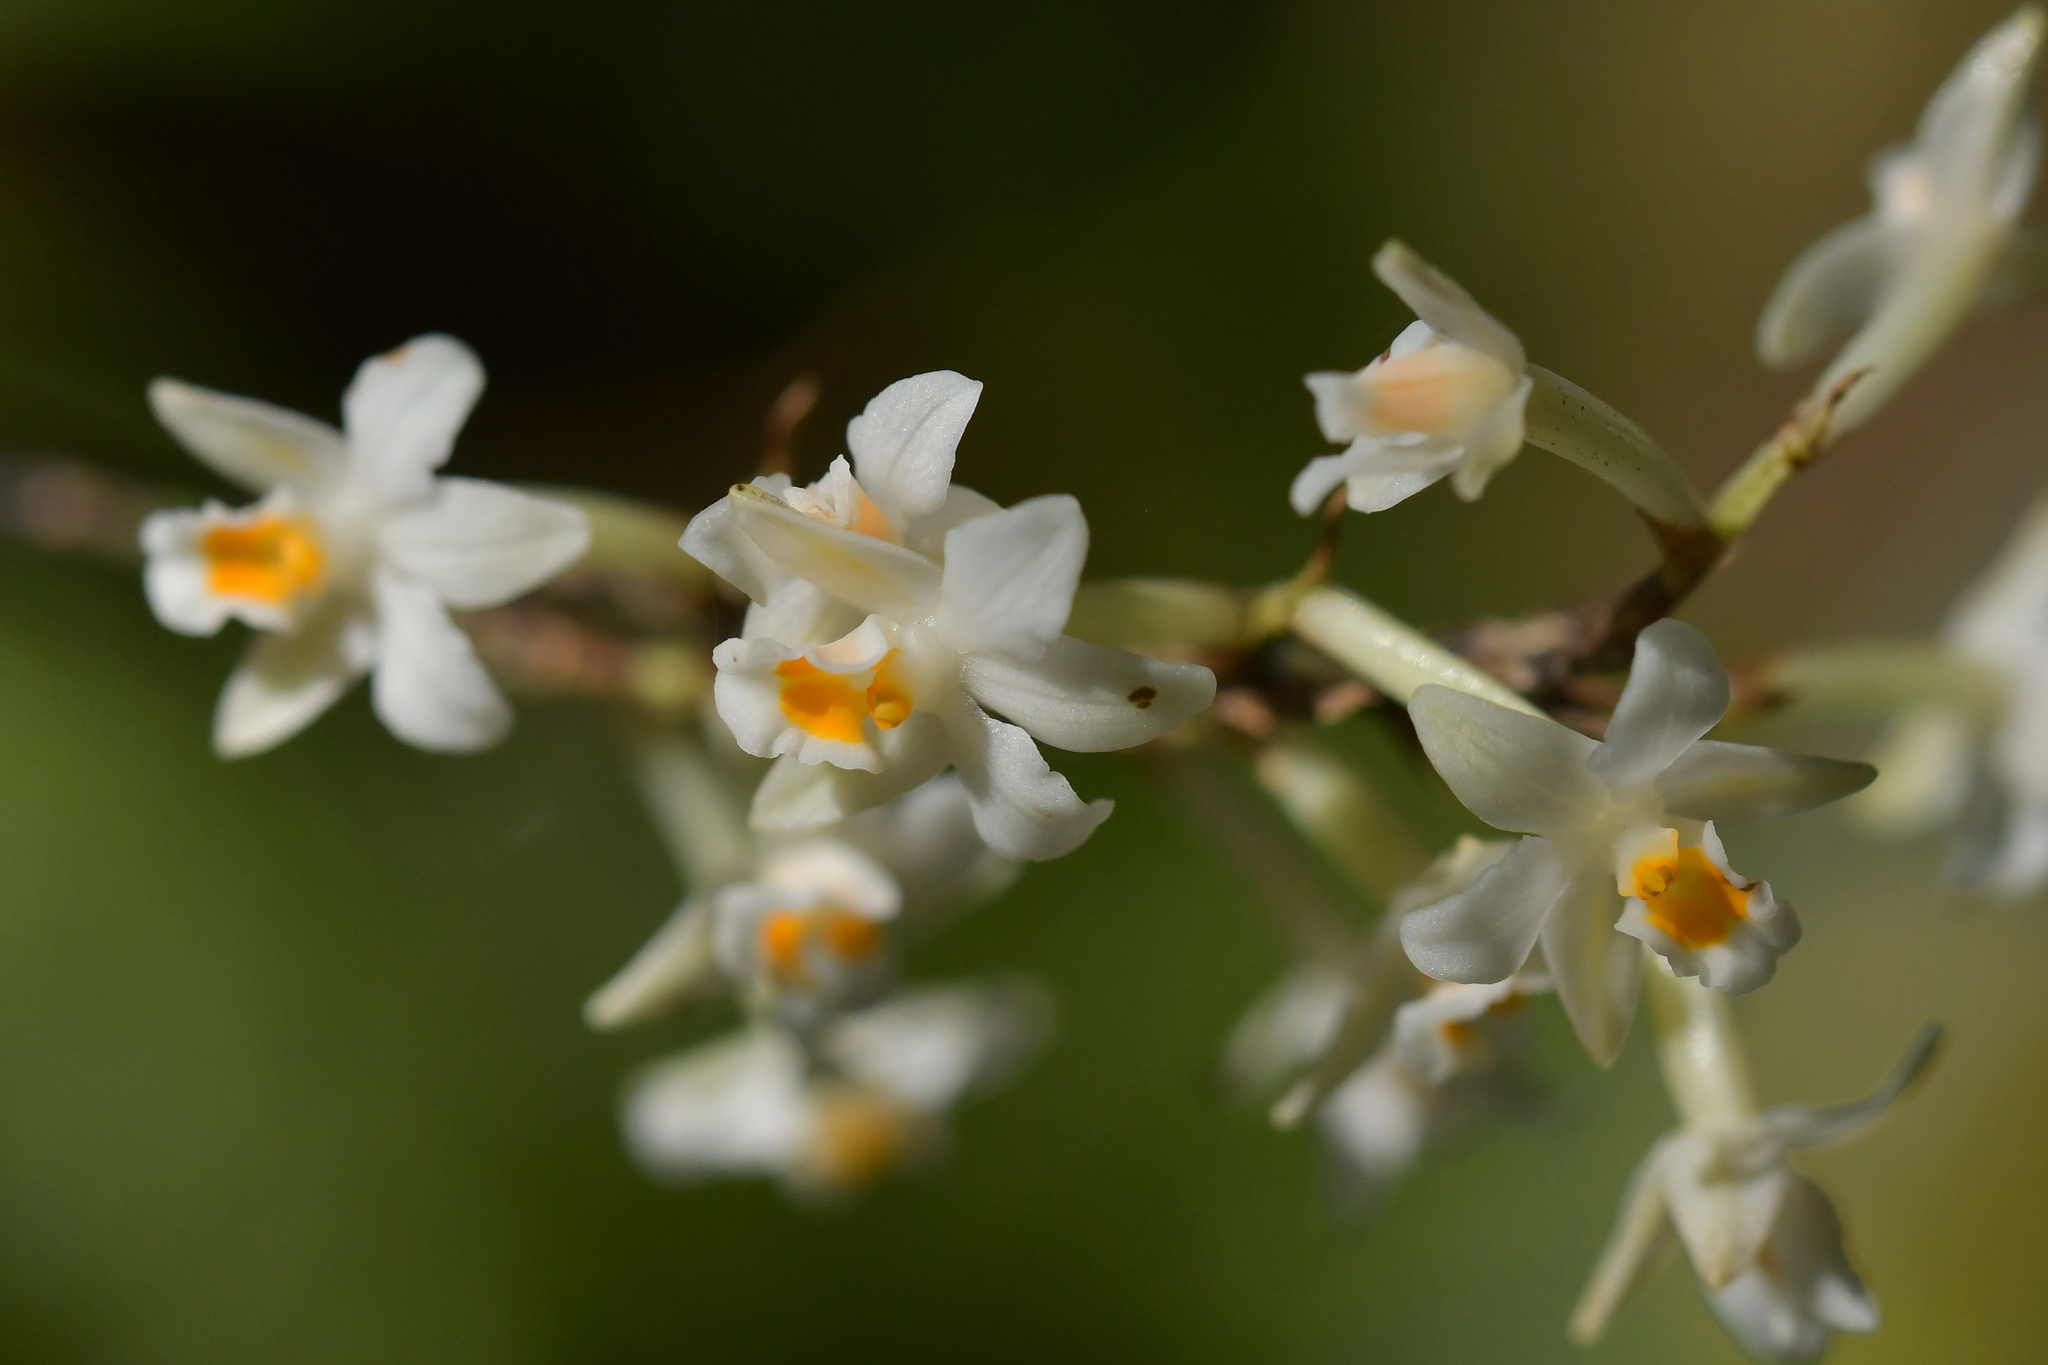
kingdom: Plantae
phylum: Tracheophyta
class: Liliopsida
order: Asparagales
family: Orchidaceae
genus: Earina
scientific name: Earina autumnalis
